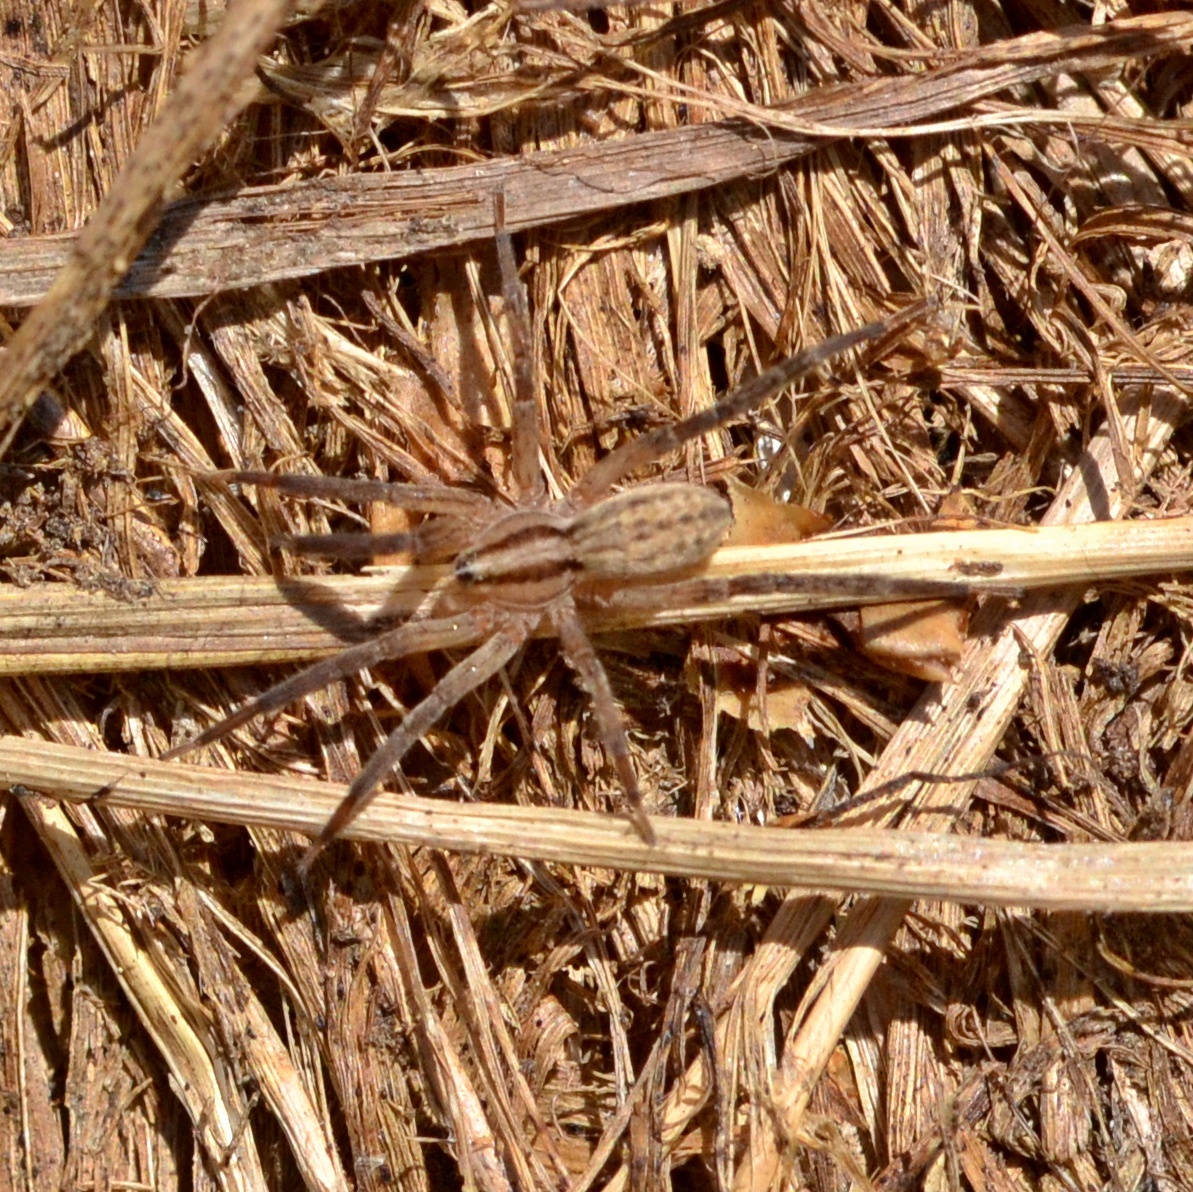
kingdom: Animalia
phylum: Arthropoda
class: Arachnida
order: Araneae
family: Miturgidae
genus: Zora
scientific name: Zora spinimana
